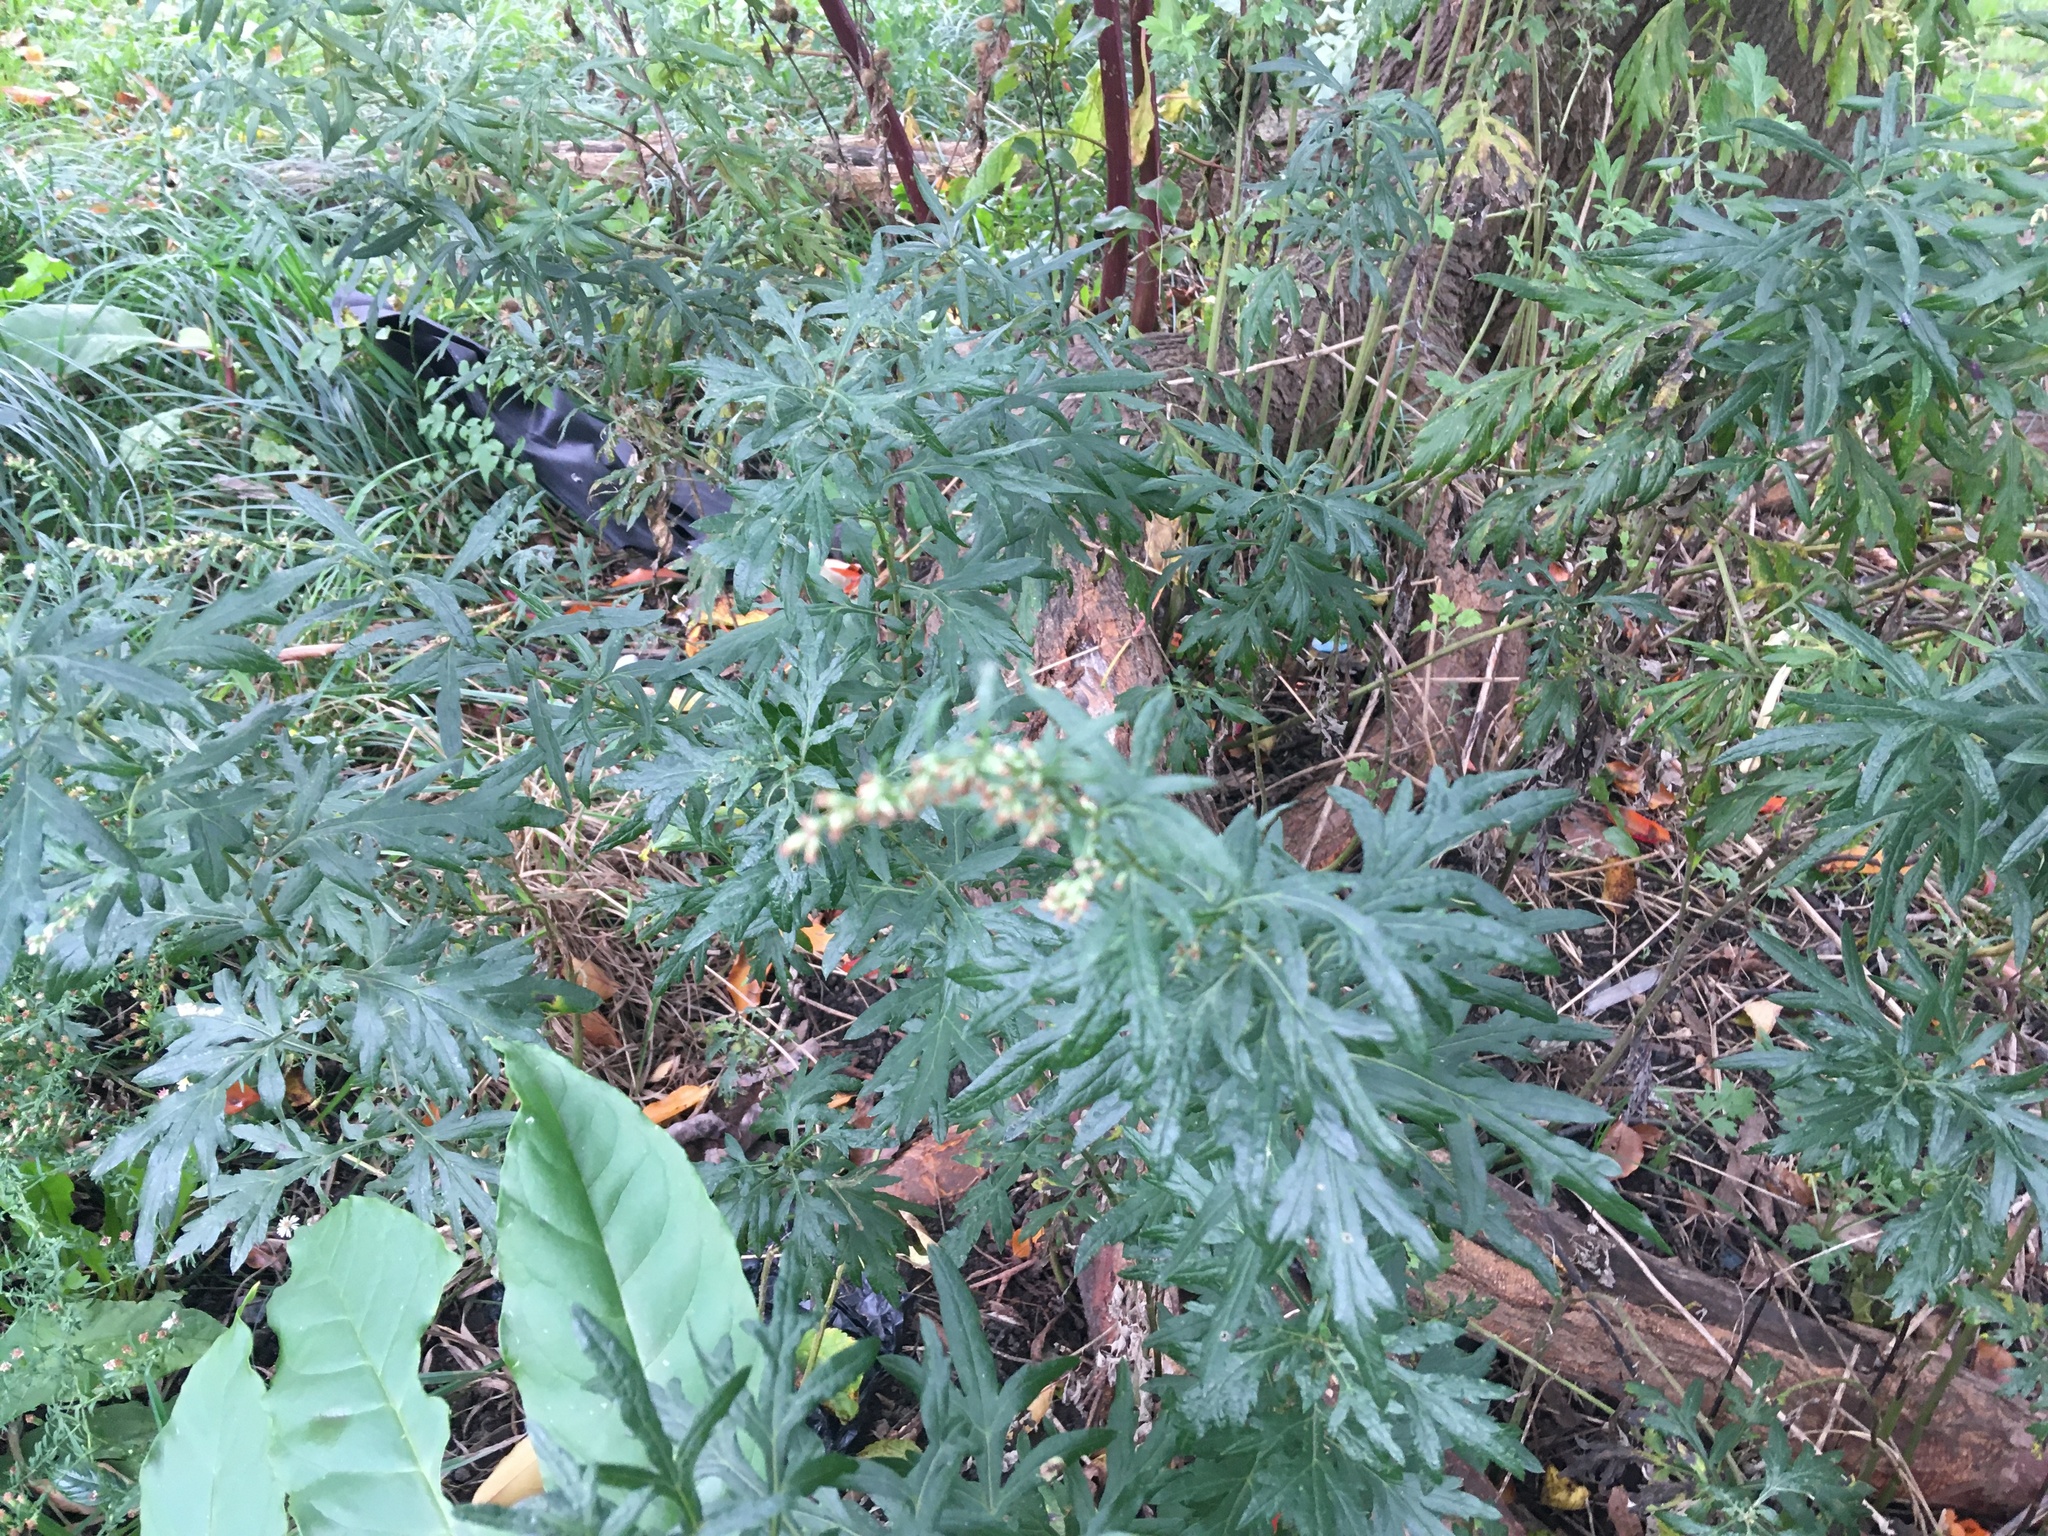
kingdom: Plantae
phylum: Tracheophyta
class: Magnoliopsida
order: Asterales
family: Asteraceae
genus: Artemisia
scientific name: Artemisia vulgaris
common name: Mugwort
